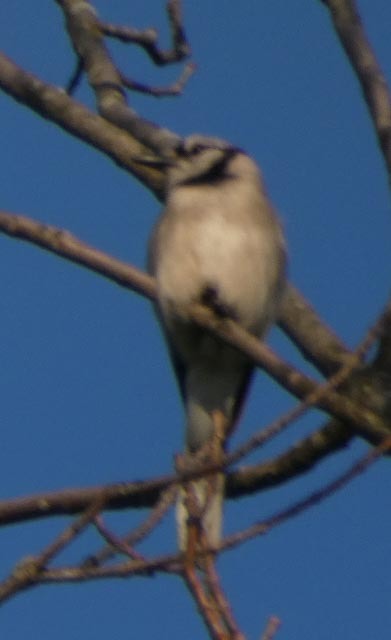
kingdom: Animalia
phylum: Chordata
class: Aves
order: Passeriformes
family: Corvidae
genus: Cyanocitta
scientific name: Cyanocitta cristata
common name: Blue jay
